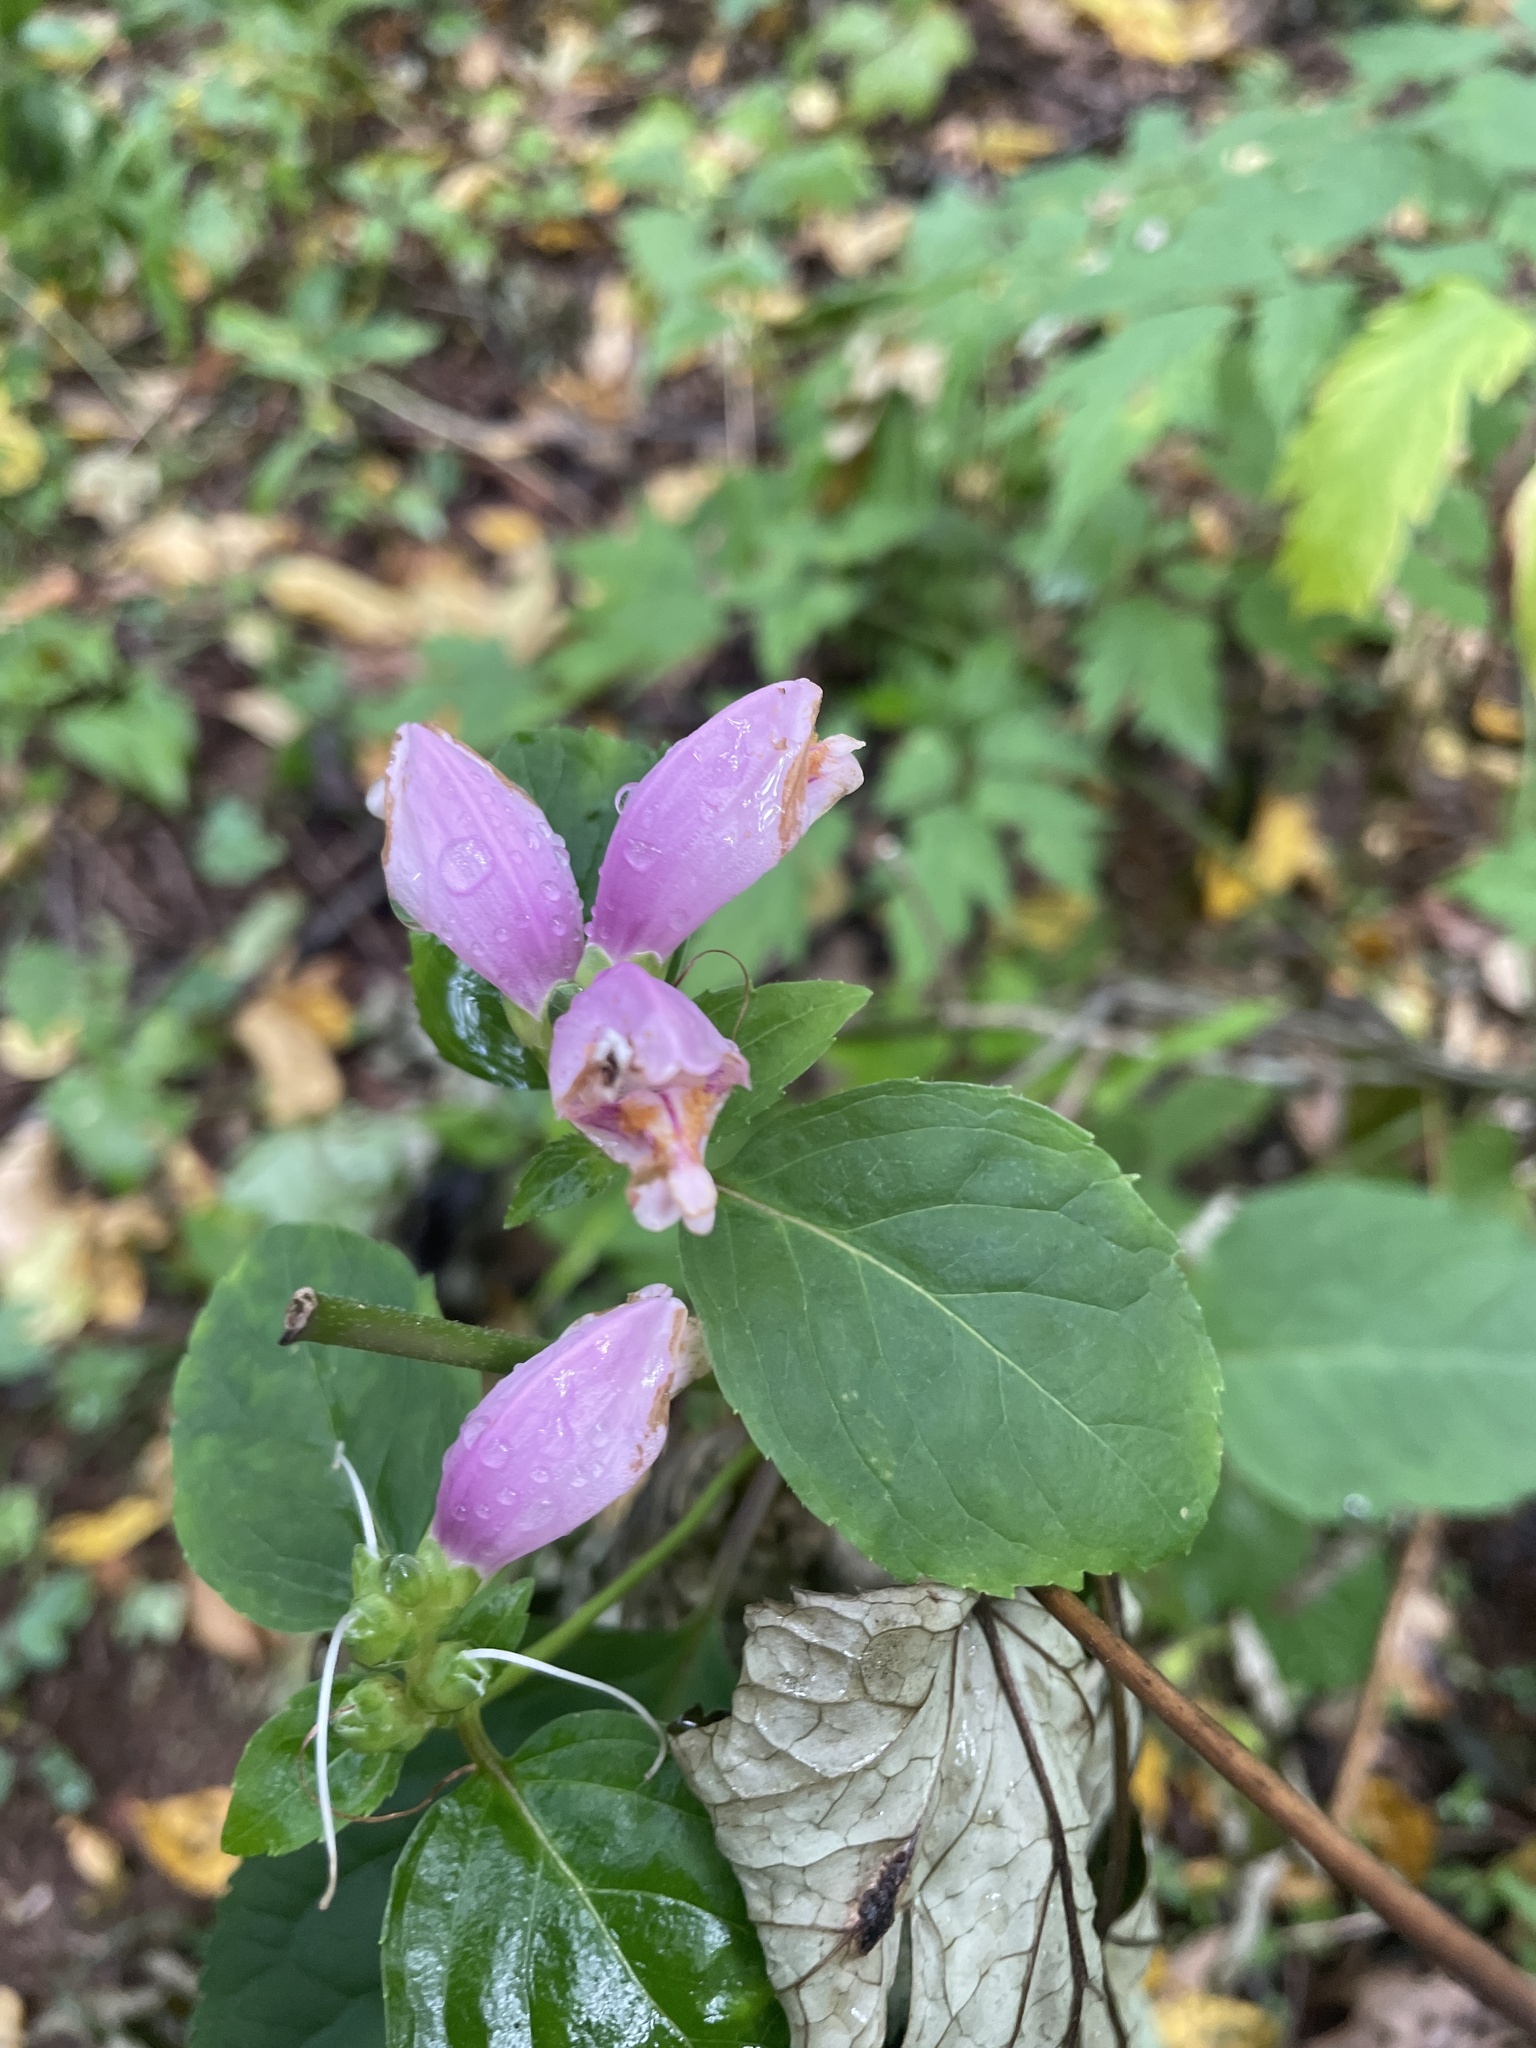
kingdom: Plantae
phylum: Tracheophyta
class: Magnoliopsida
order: Lamiales
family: Plantaginaceae
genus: Chelone
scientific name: Chelone lyonii
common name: Pink turtlehead
